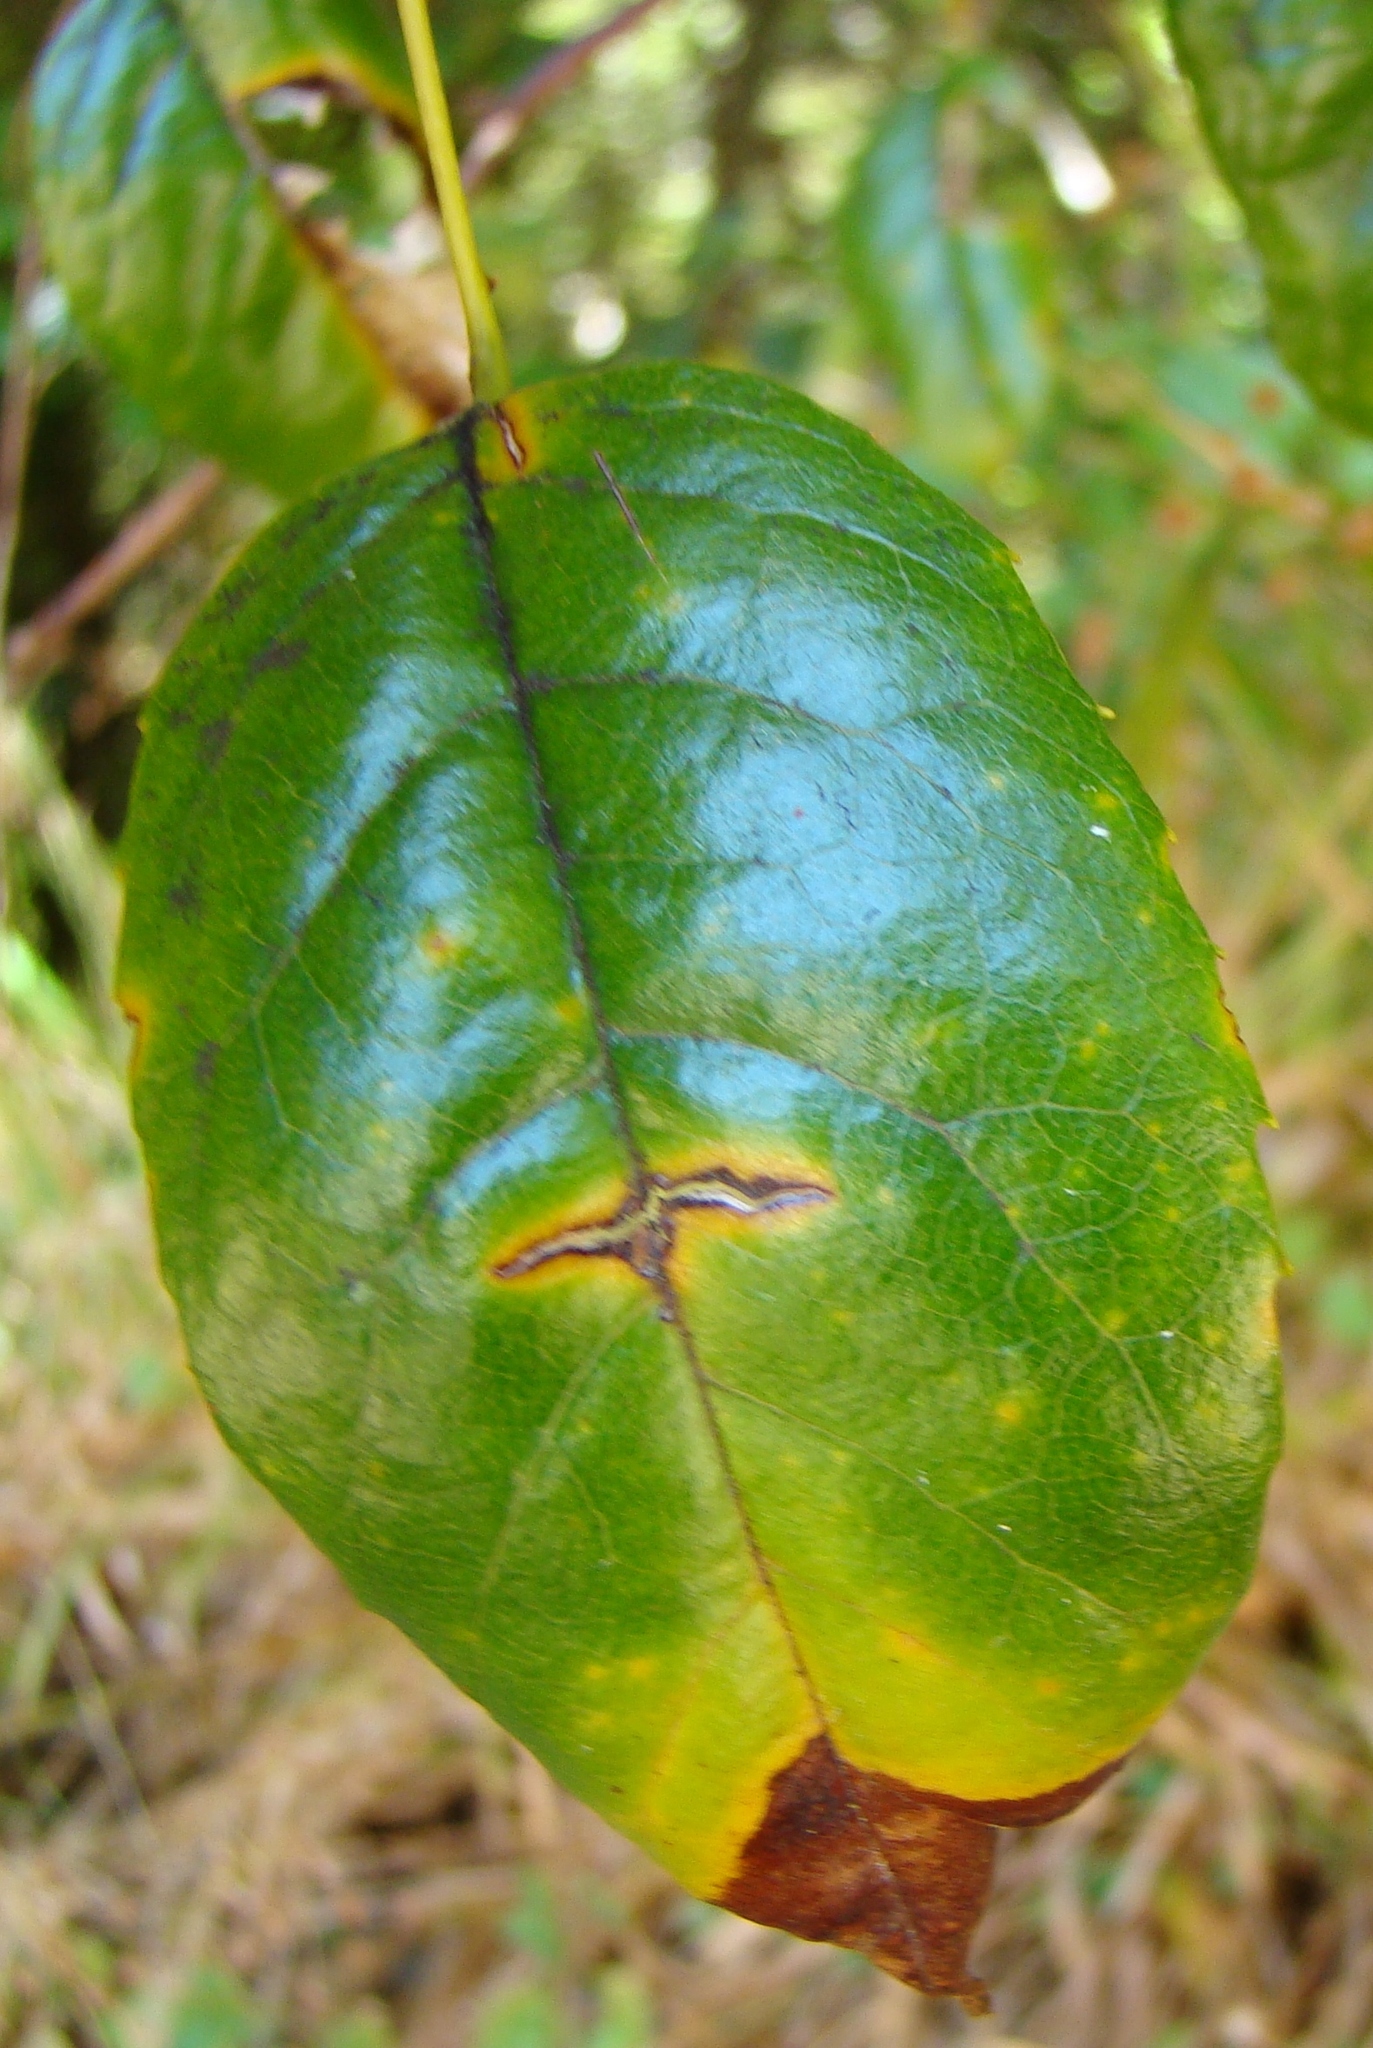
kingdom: Plantae
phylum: Tracheophyta
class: Magnoliopsida
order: Rosales
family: Rosaceae
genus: Rubus
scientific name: Rubus cissoides
